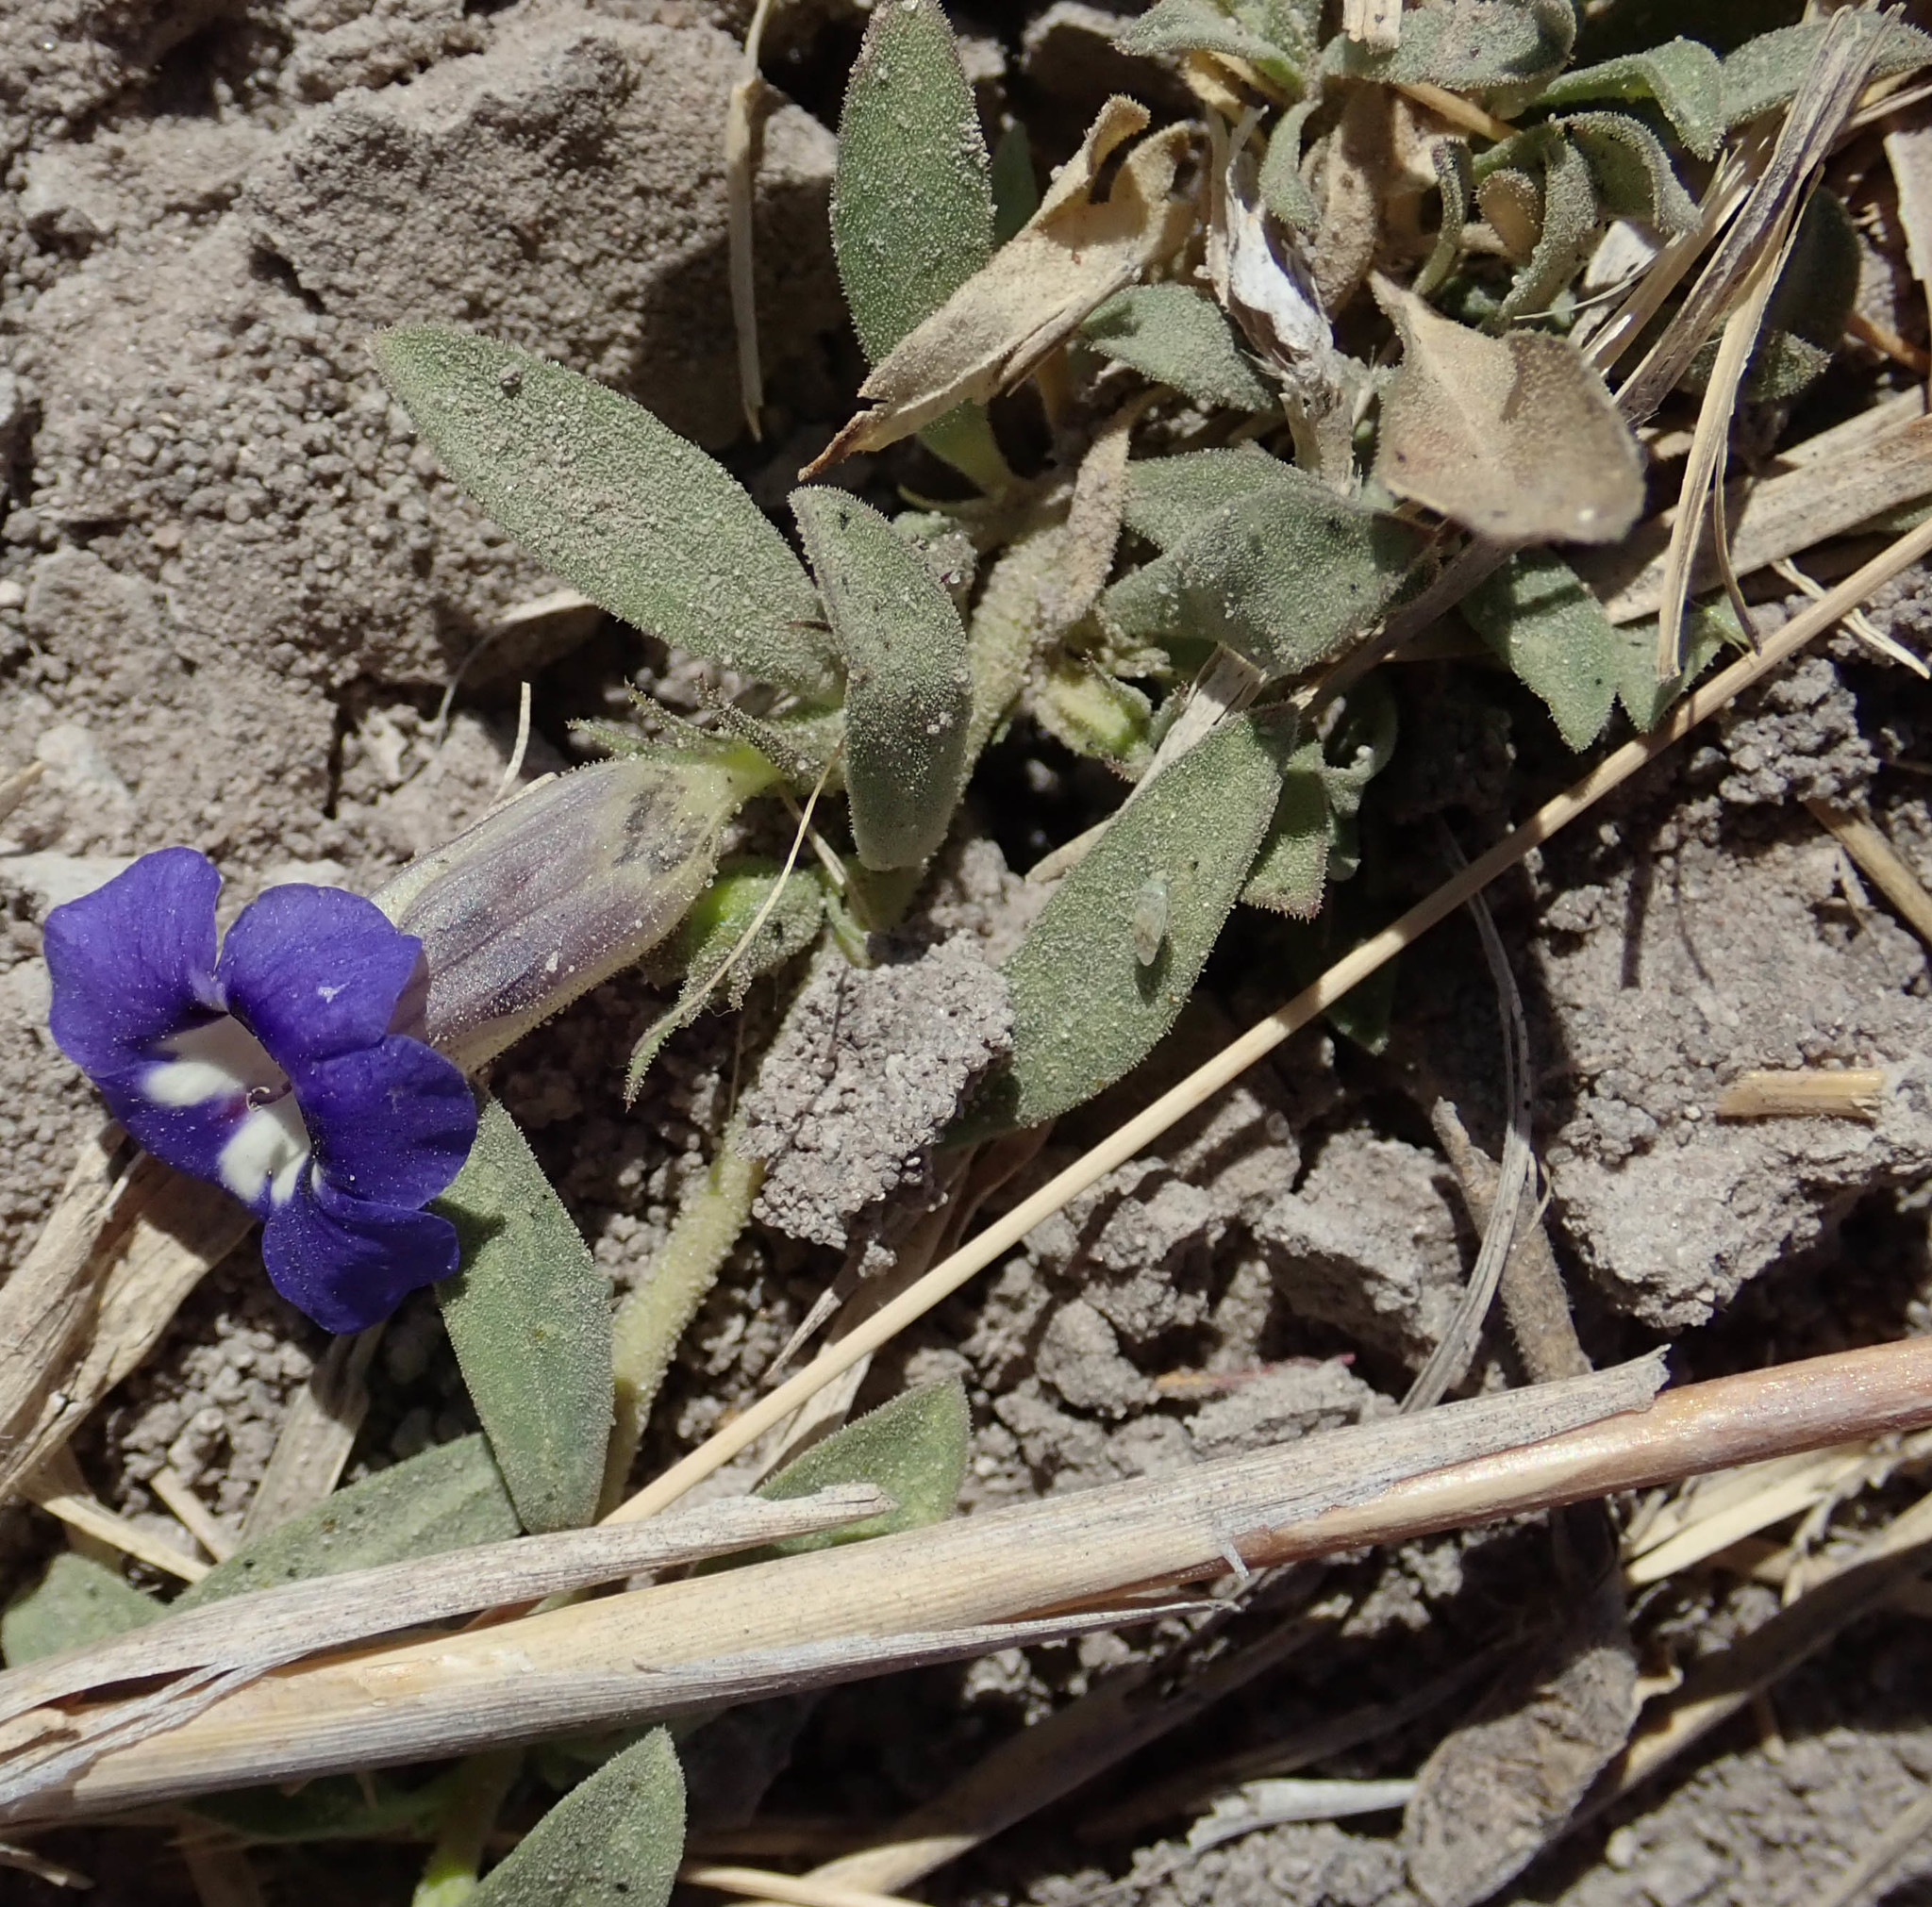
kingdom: Plantae
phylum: Tracheophyta
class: Magnoliopsida
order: Lamiales
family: Scrophulariaceae
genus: Aptosimum
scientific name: Aptosimum decumbens
